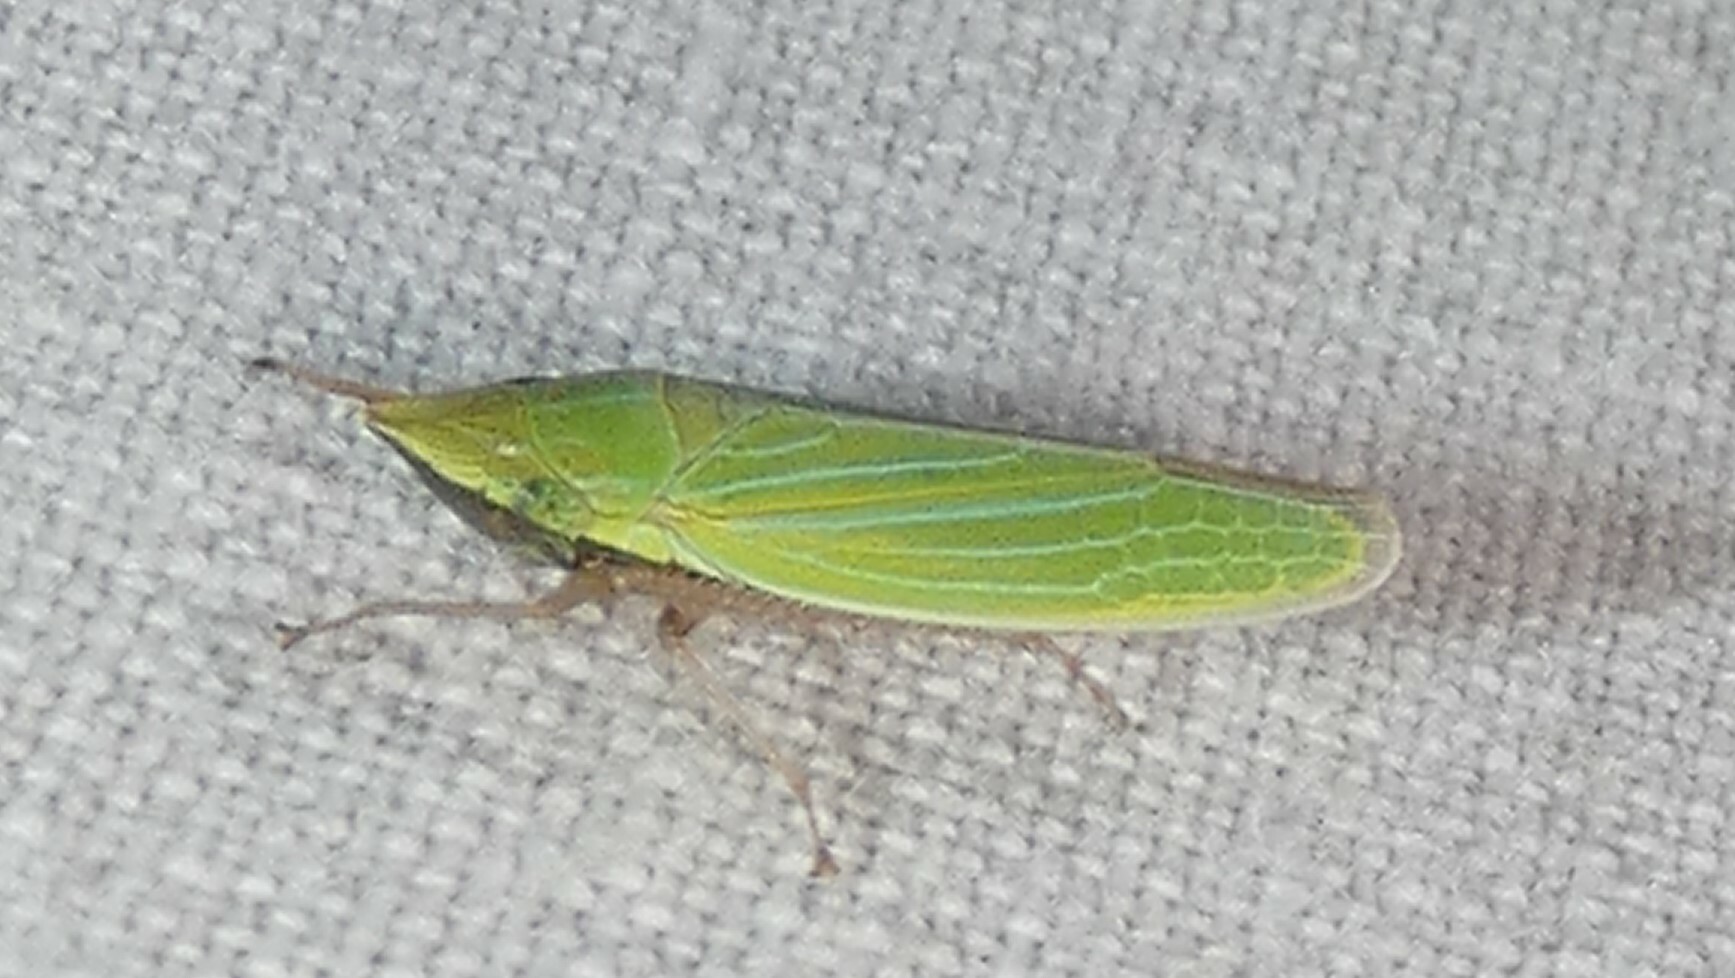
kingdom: Animalia
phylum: Arthropoda
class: Insecta
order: Hemiptera
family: Cicadellidae
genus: Draeculacephala
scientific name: Draeculacephala robinsoni
